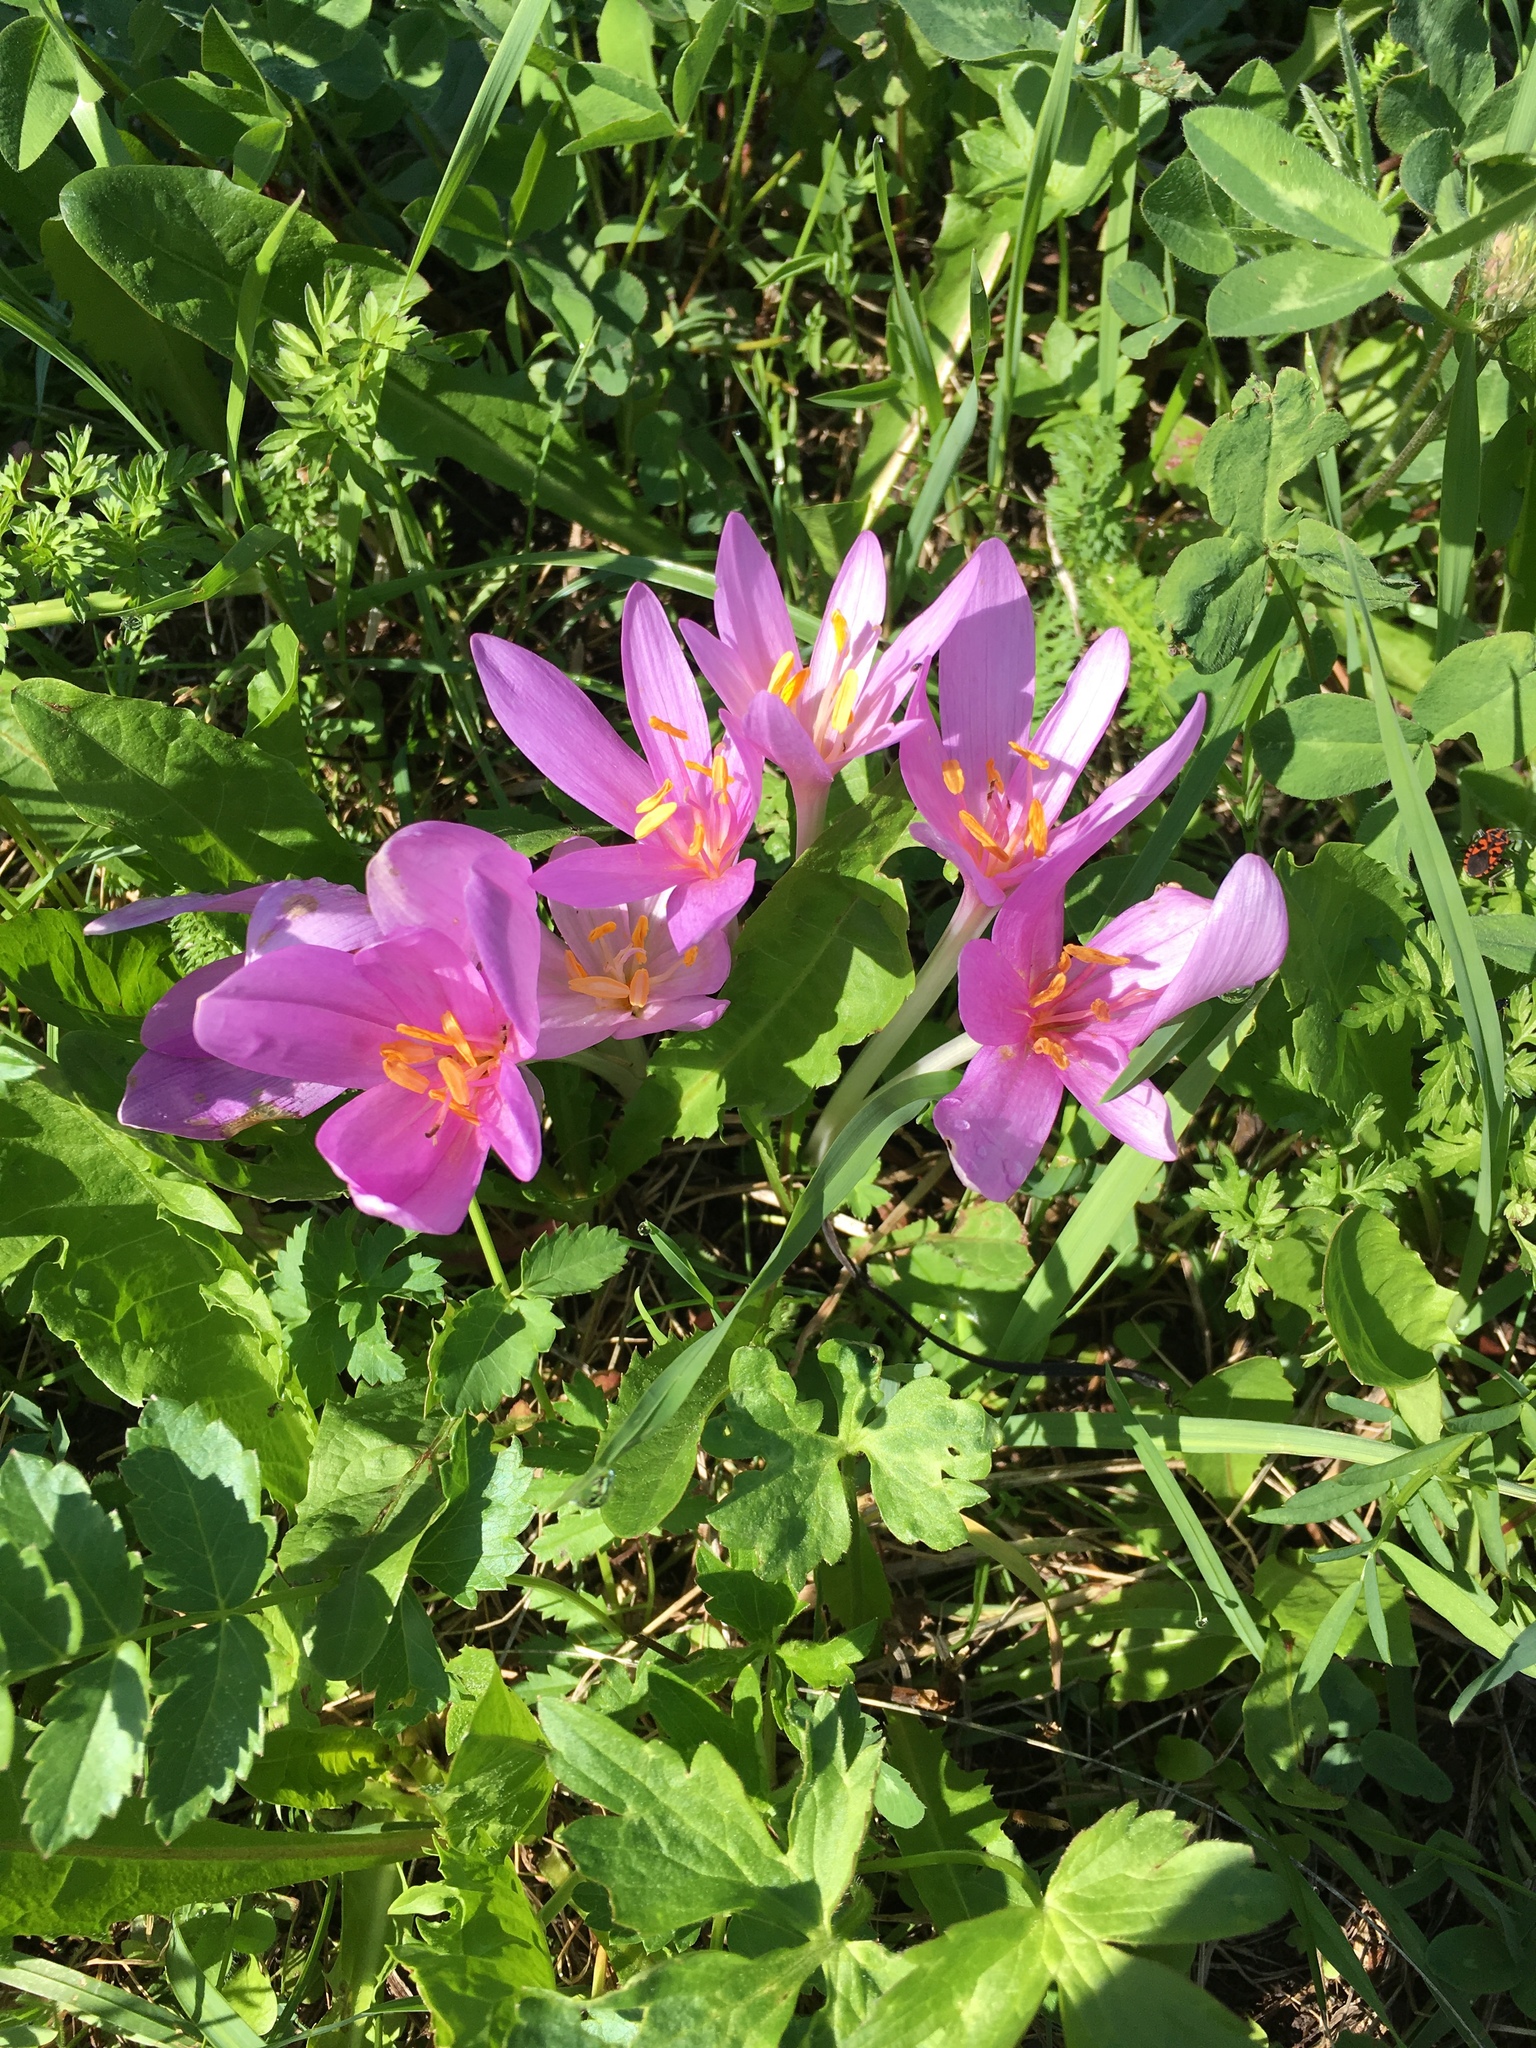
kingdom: Plantae
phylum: Tracheophyta
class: Liliopsida
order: Liliales
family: Colchicaceae
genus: Colchicum
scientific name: Colchicum autumnale
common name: Autumn crocus
